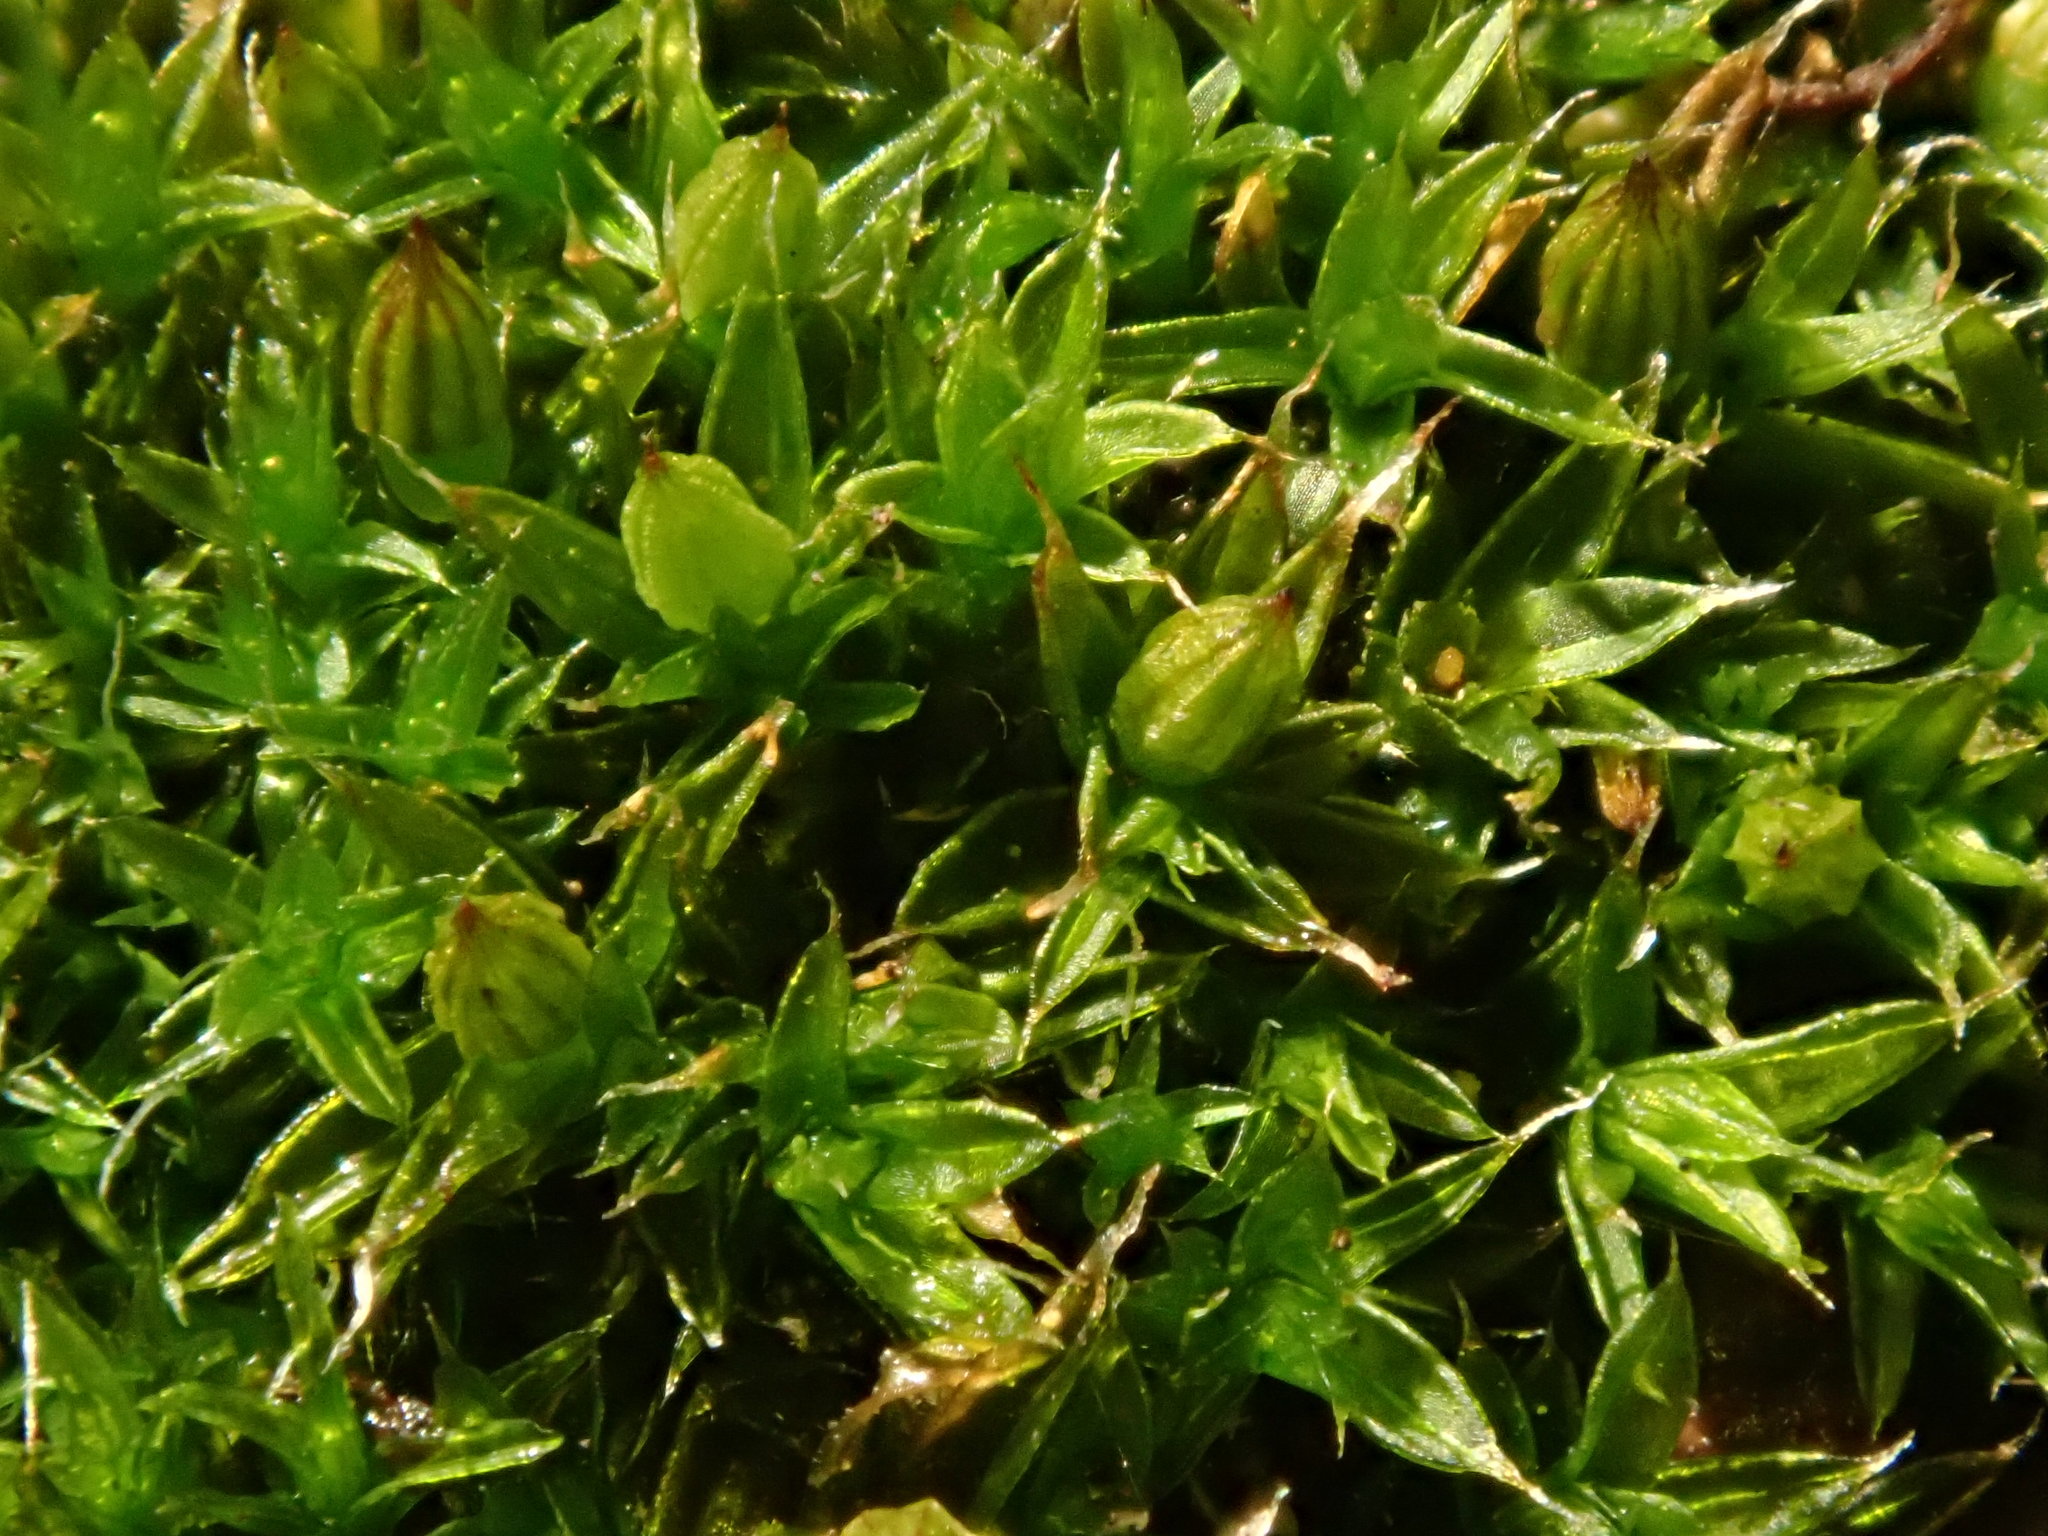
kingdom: Plantae
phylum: Bryophyta
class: Bryopsida
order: Orthotrichales
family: Orthotrichaceae
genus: Orthotrichum
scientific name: Orthotrichum diaphanum
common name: White-tipped bristle-moss
